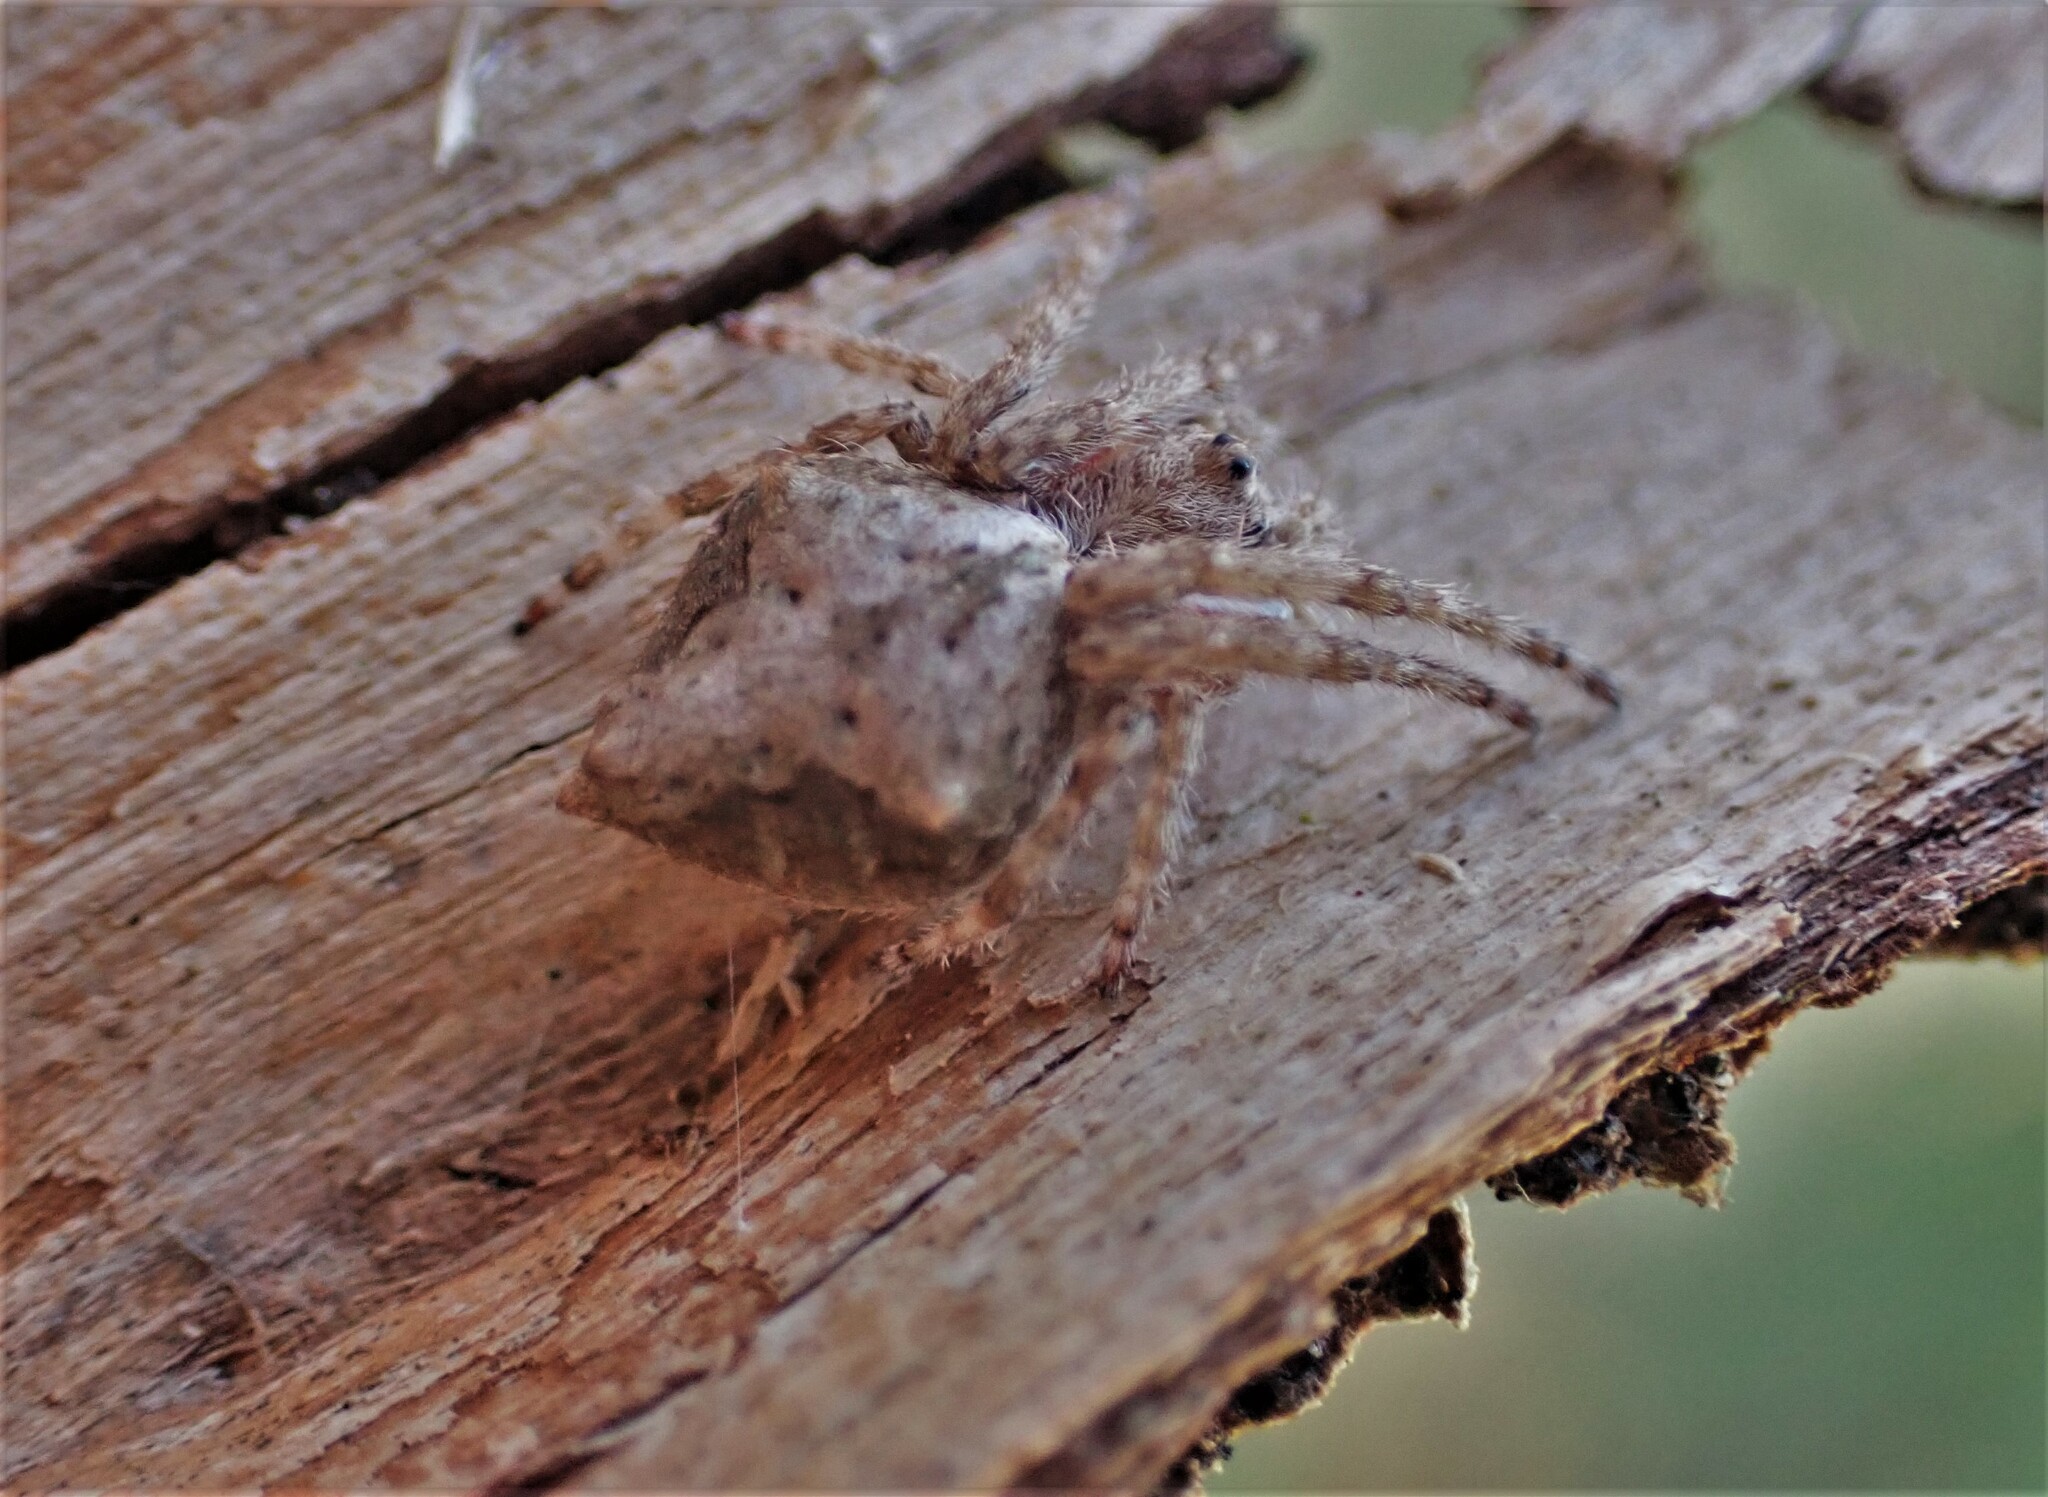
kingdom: Animalia
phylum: Arthropoda
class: Arachnida
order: Araneae
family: Araneidae
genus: Eriophora
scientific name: Eriophora pustulosa
